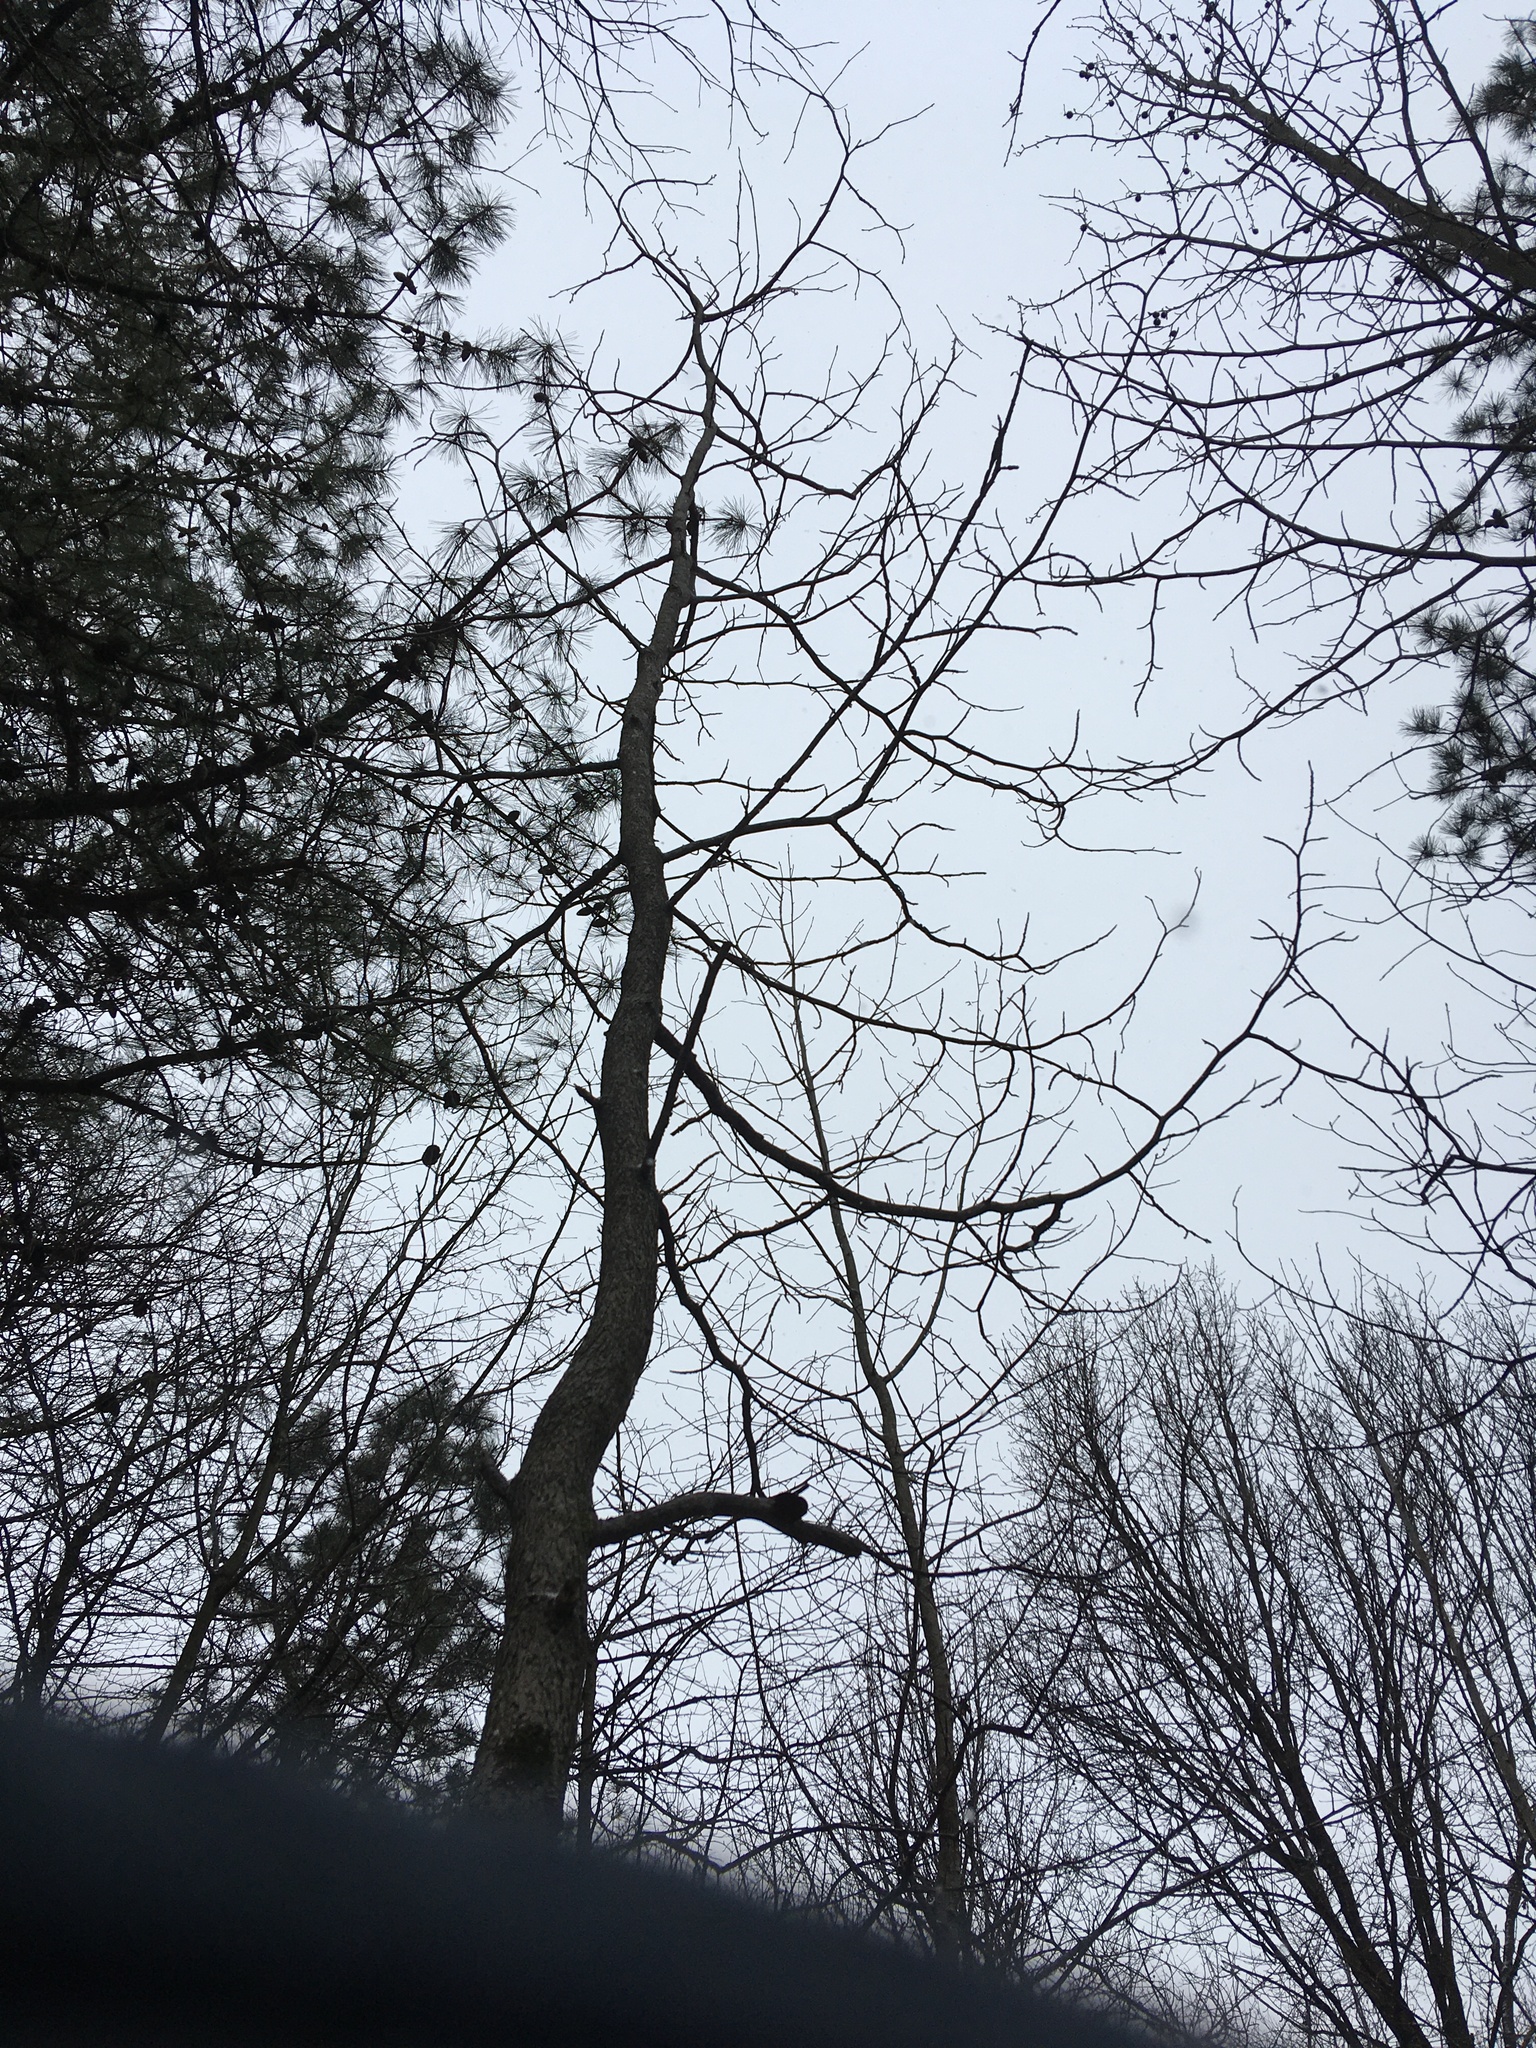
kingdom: Plantae
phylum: Tracheophyta
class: Magnoliopsida
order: Laurales
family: Lauraceae
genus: Sassafras
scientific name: Sassafras albidum
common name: Sassafras
